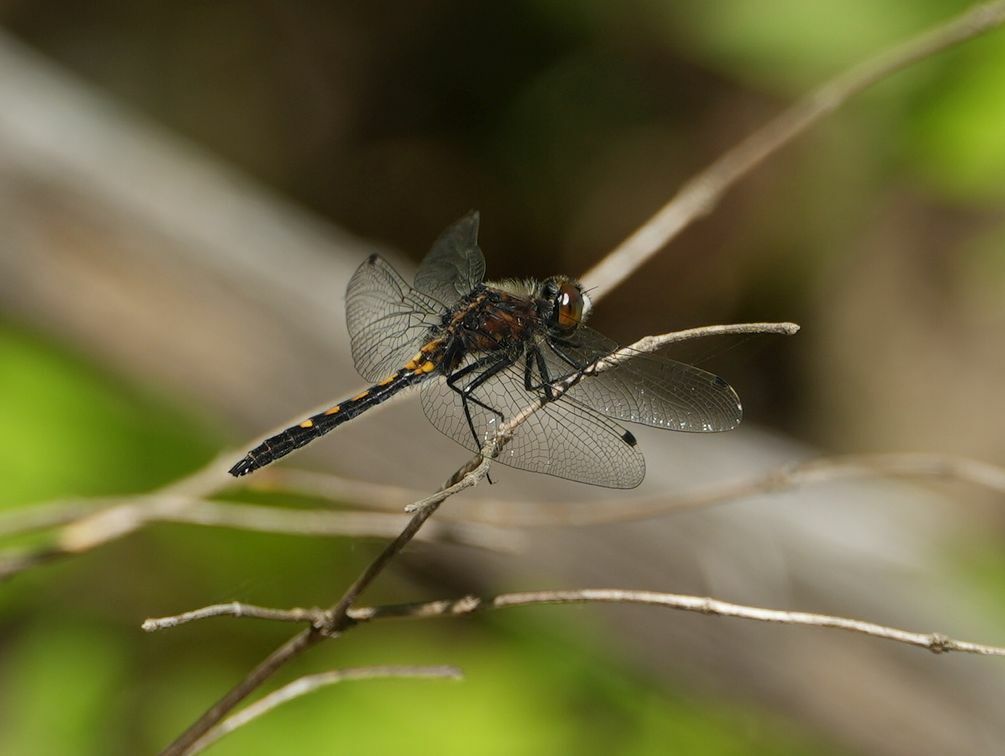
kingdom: Animalia
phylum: Arthropoda
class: Insecta
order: Odonata
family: Libellulidae
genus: Leucorrhinia
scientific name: Leucorrhinia intacta
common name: Dot-tailed whiteface
